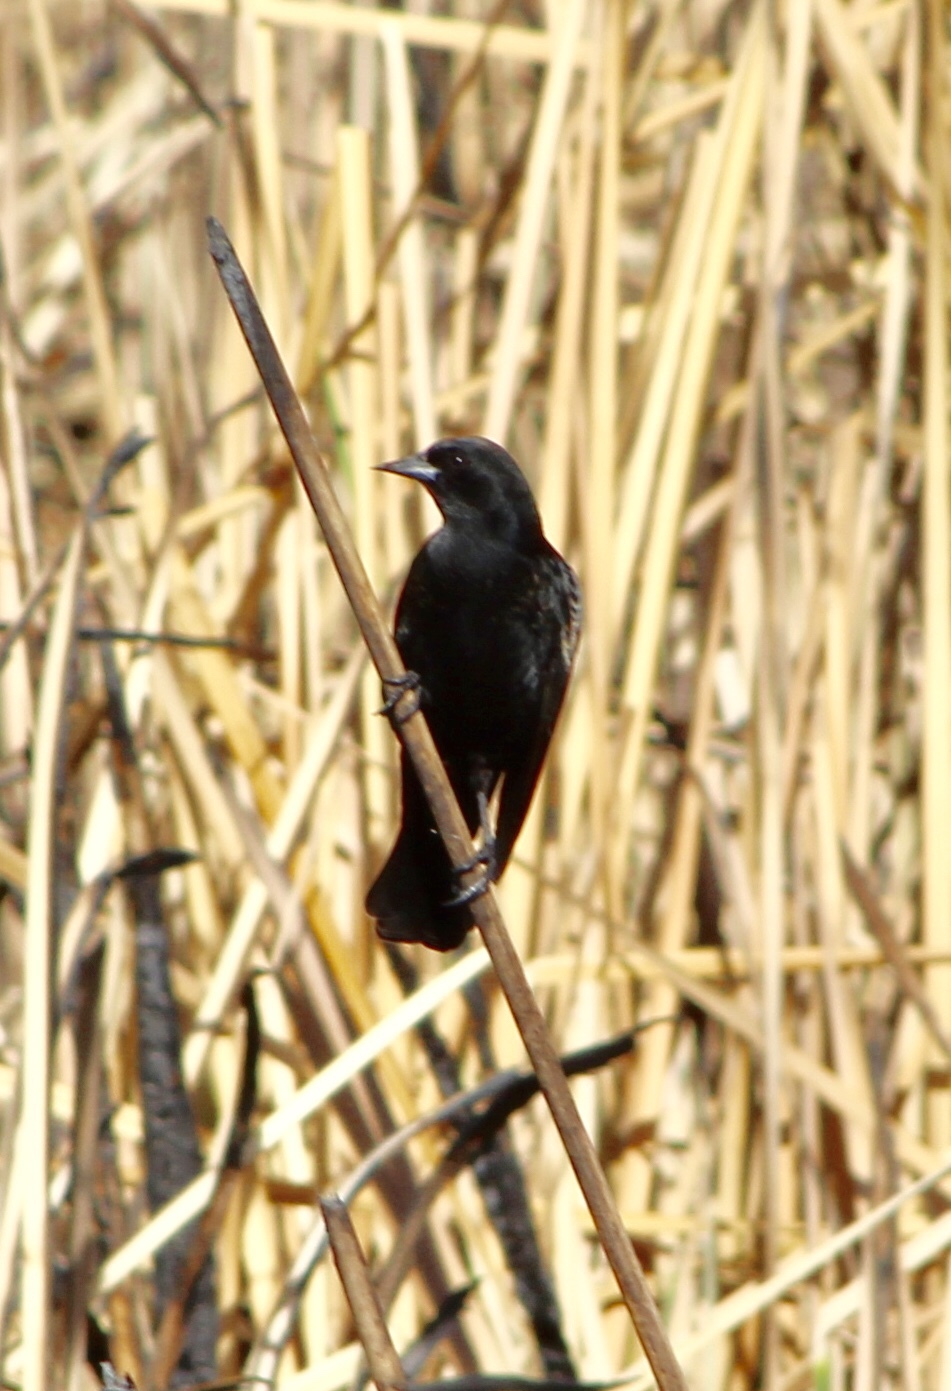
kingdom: Animalia
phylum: Chordata
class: Aves
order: Passeriformes
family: Icteridae
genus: Agelaius
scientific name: Agelaius phoeniceus
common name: Red-winged blackbird
